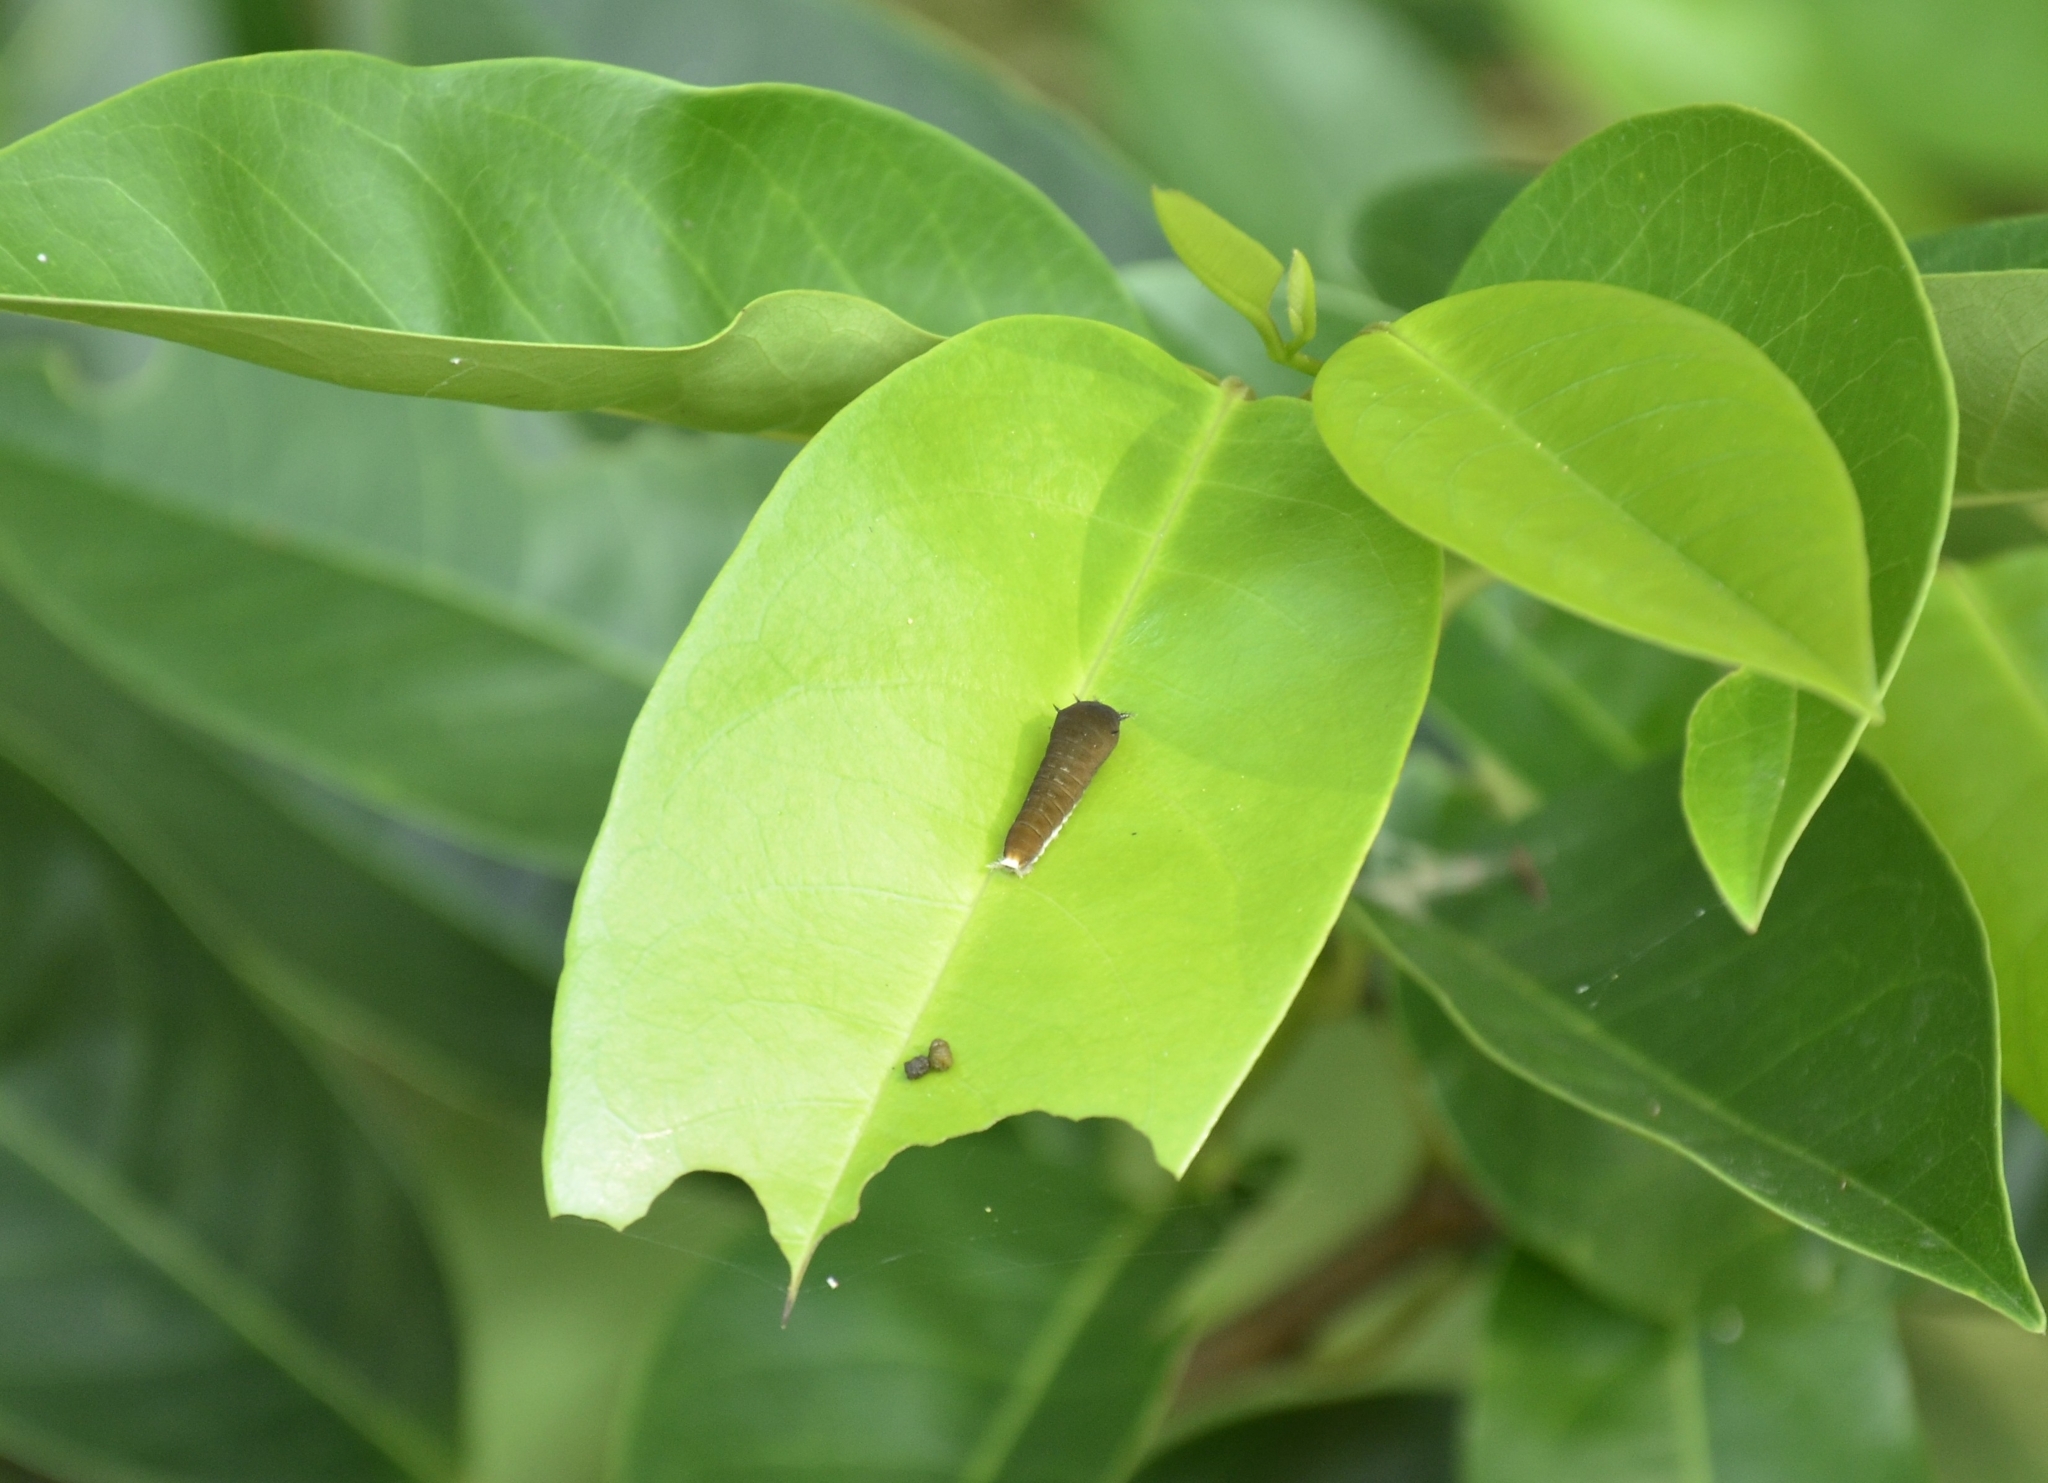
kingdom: Animalia
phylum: Arthropoda
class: Insecta
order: Lepidoptera
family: Papilionidae
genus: Graphium
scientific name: Graphium doson
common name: Common jay
